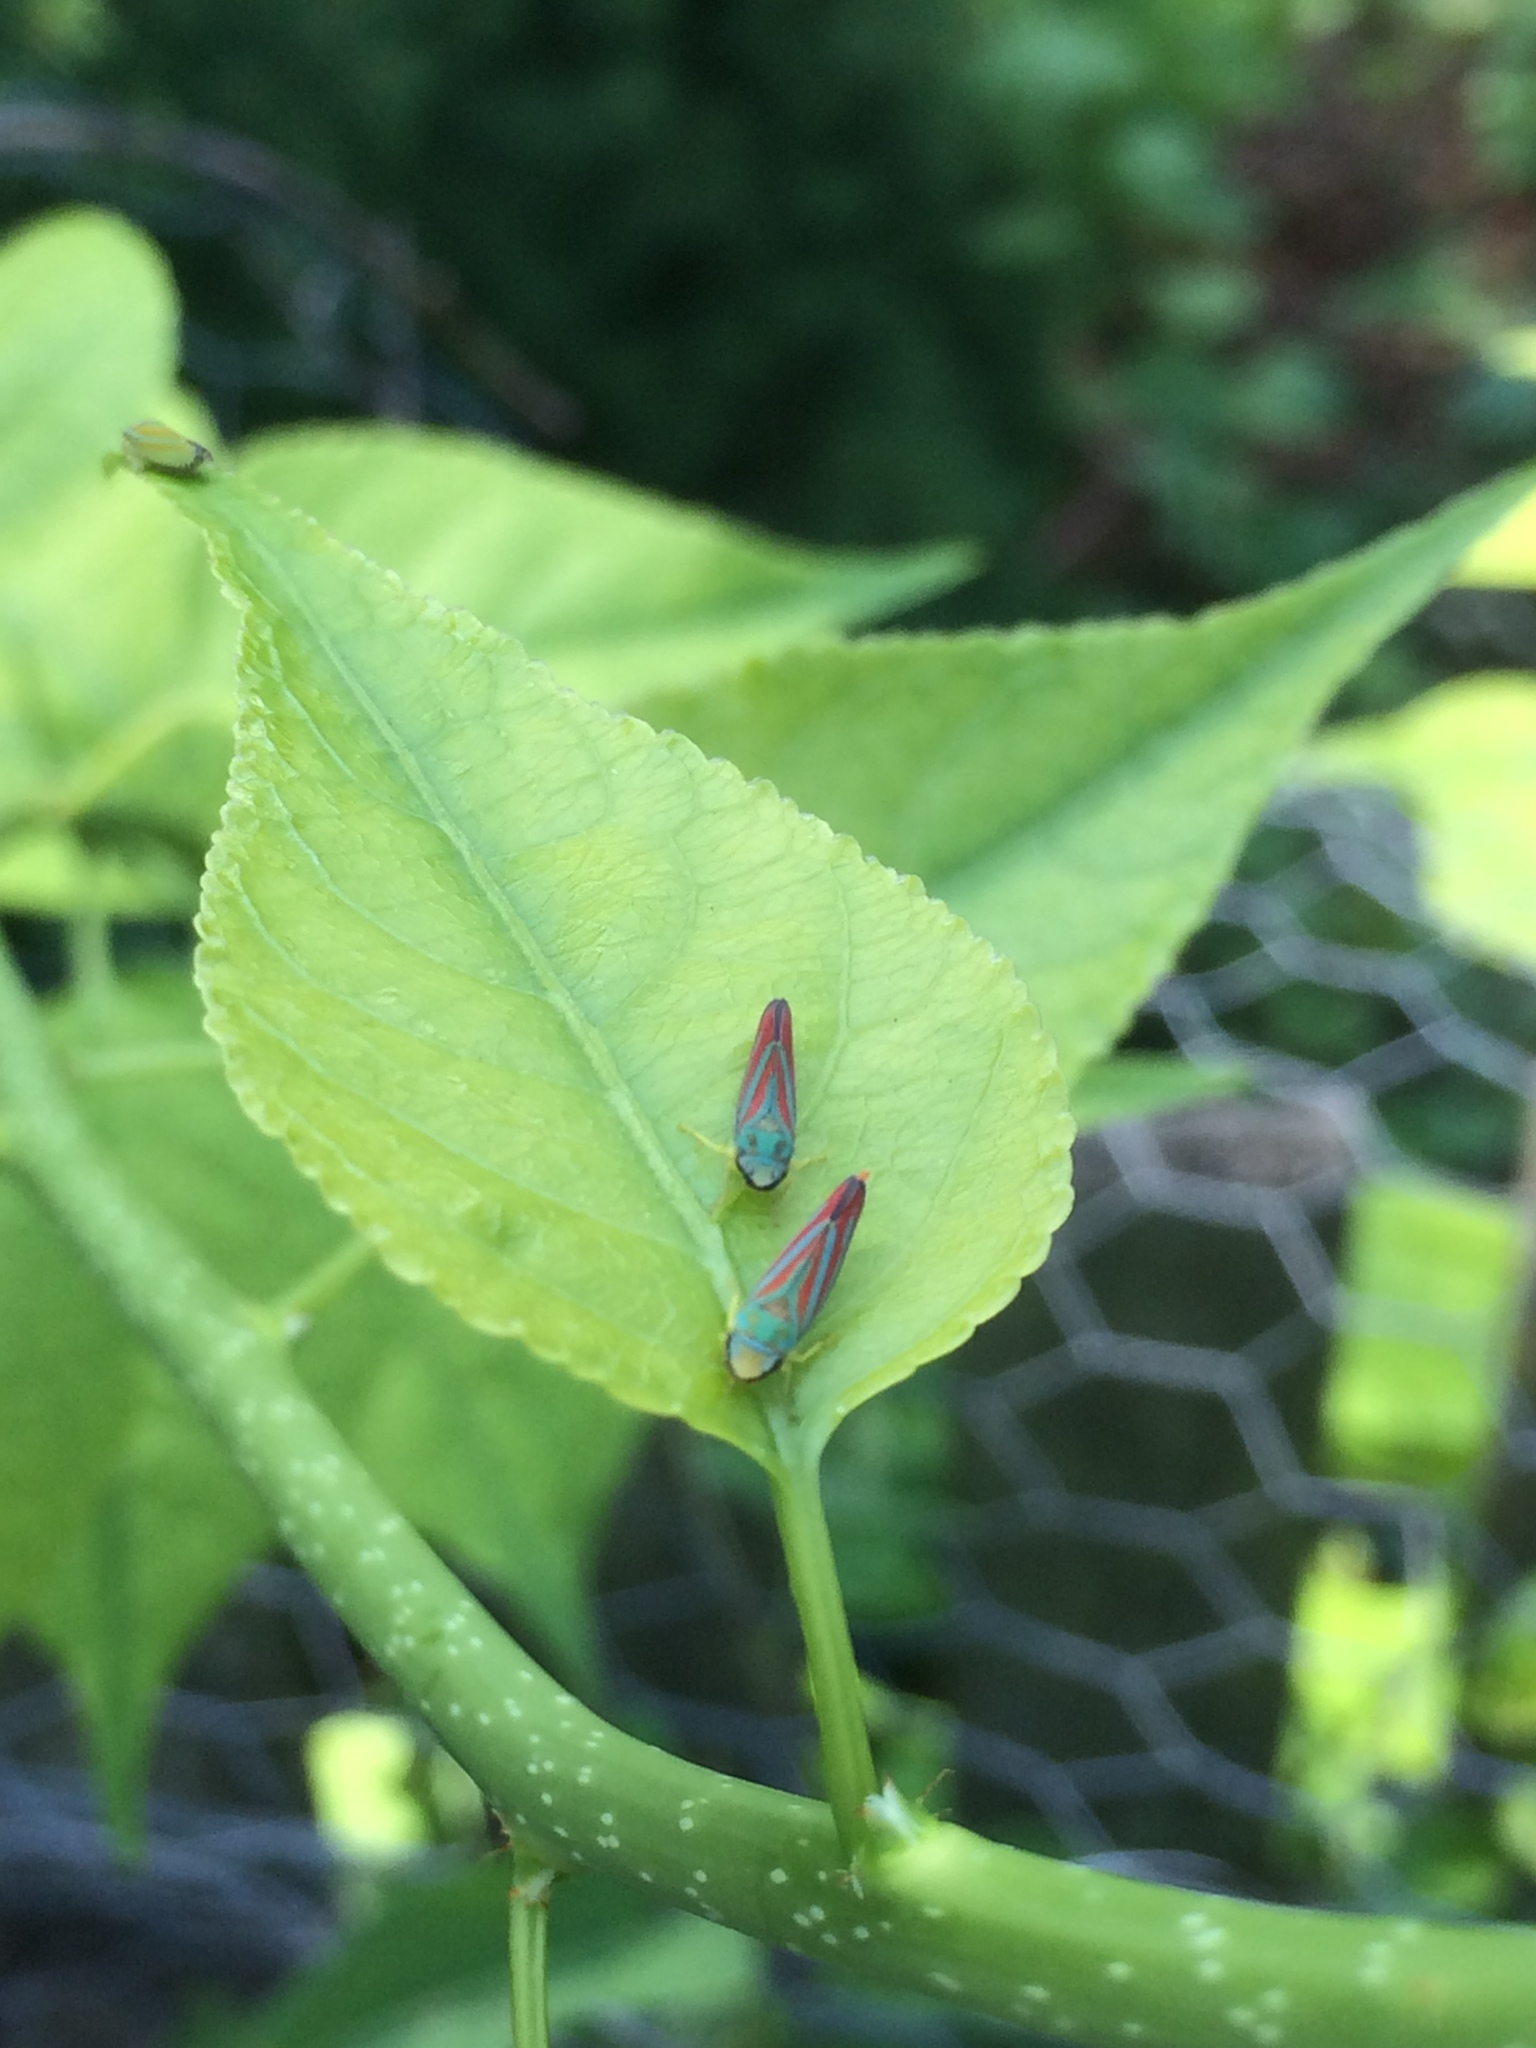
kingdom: Animalia
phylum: Arthropoda
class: Insecta
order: Hemiptera
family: Cicadellidae
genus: Graphocephala
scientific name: Graphocephala coccinea
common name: Candy-striped leafhopper
